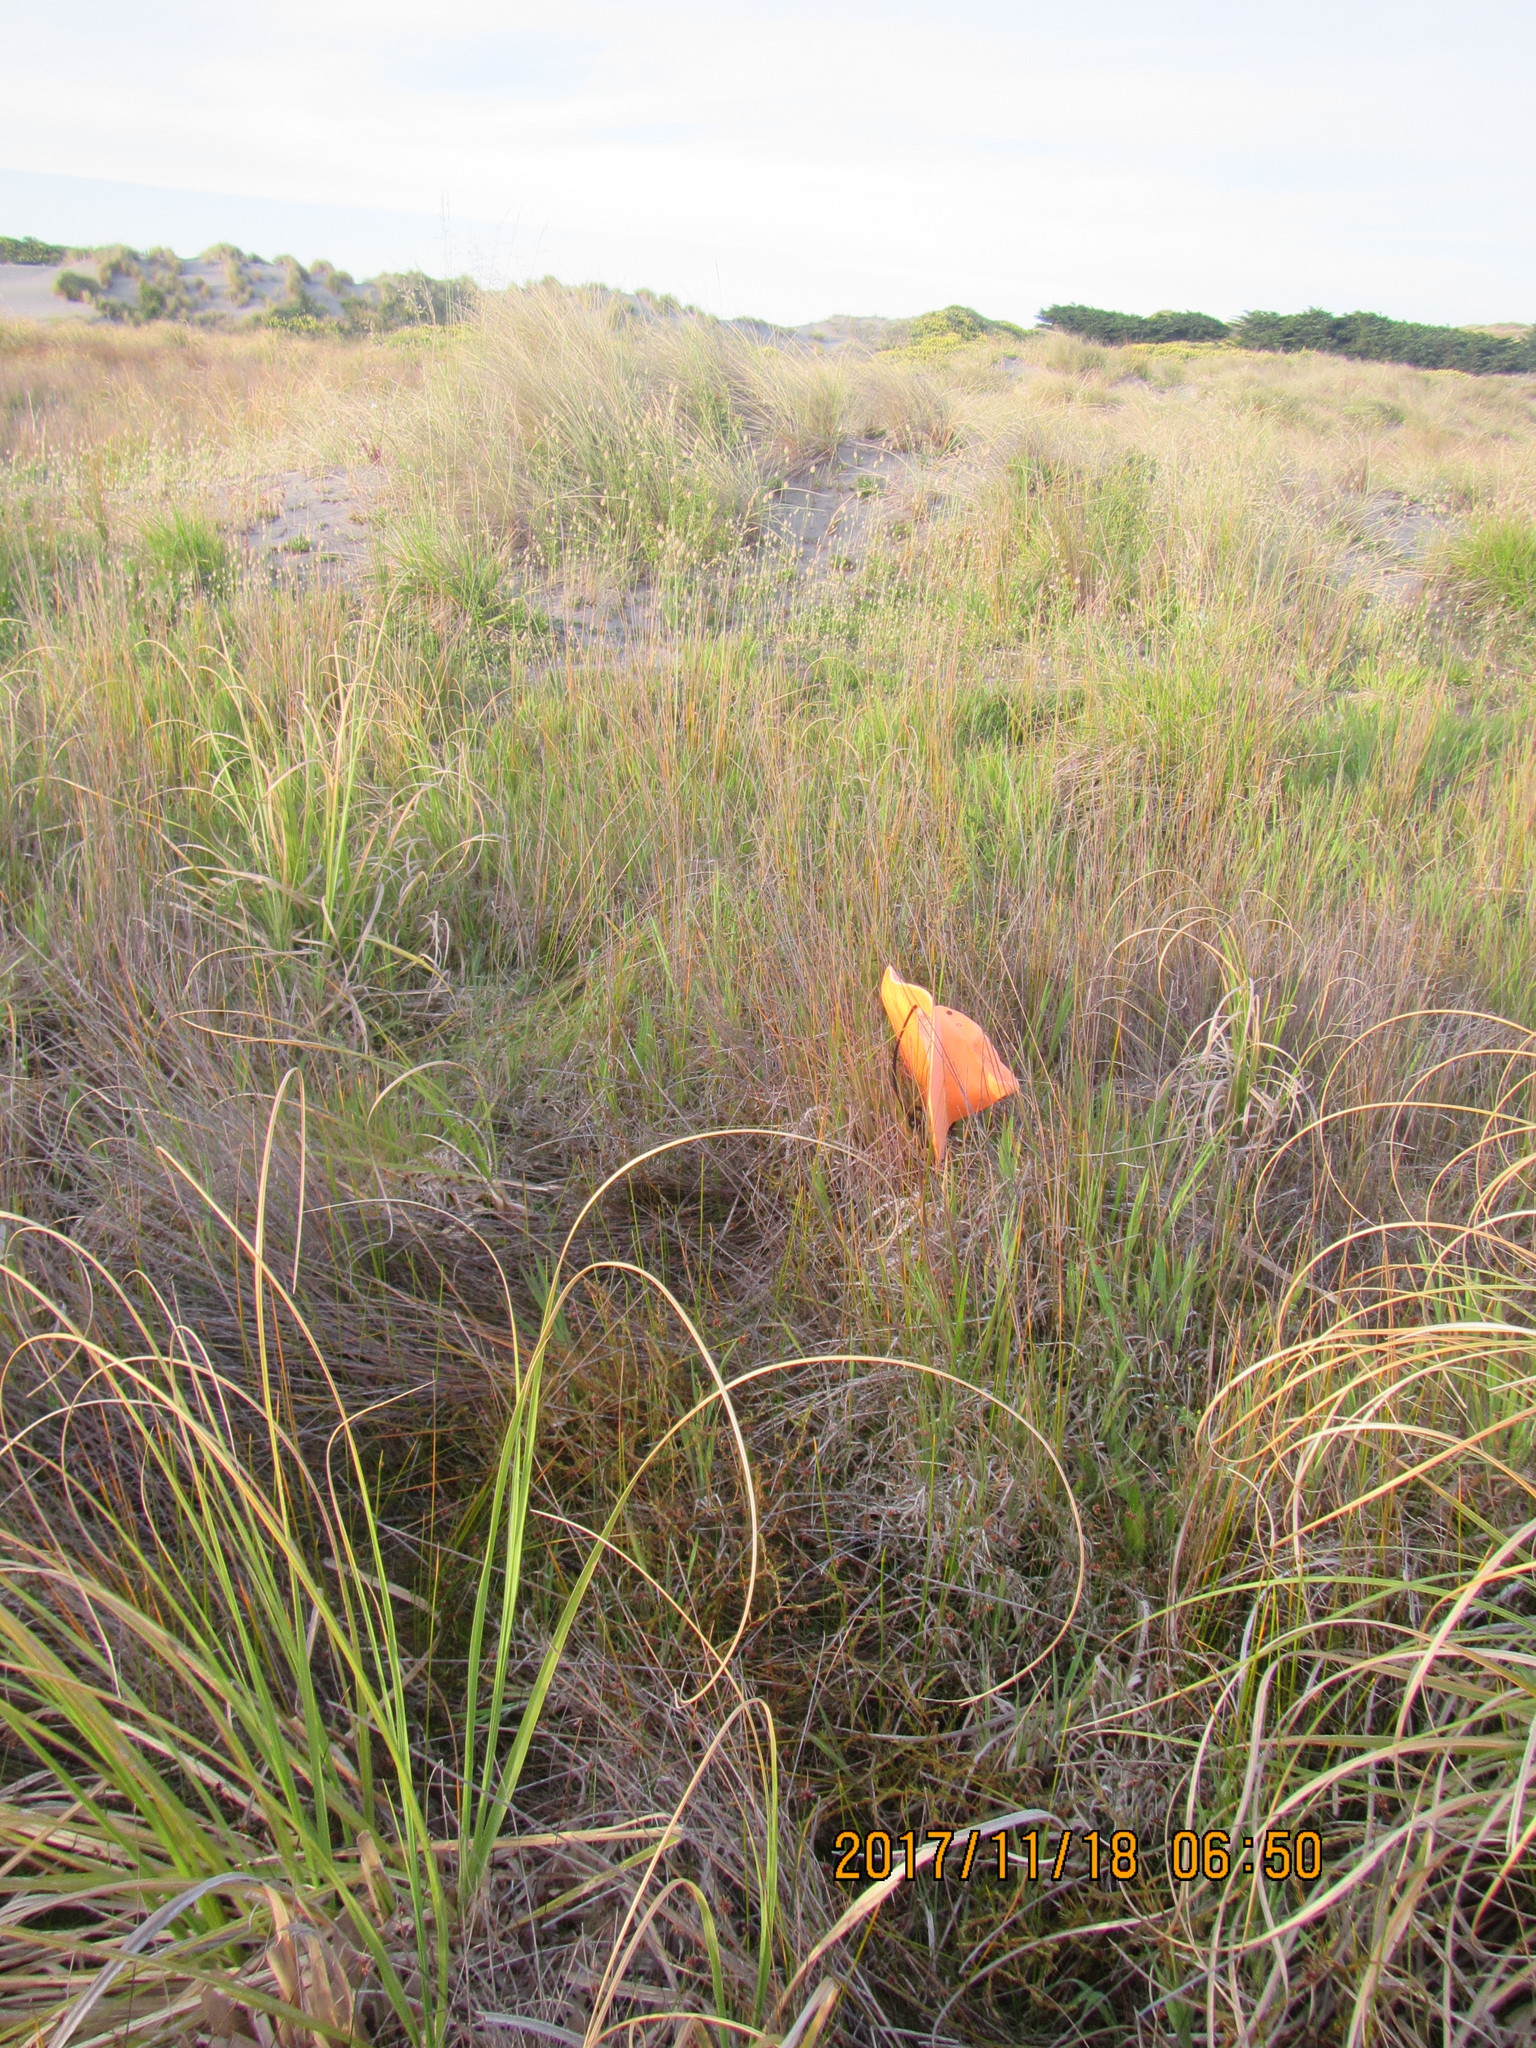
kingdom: Plantae
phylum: Tracheophyta
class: Magnoliopsida
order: Gentianales
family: Rubiaceae
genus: Coprosma
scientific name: Coprosma acerosa
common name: Sand coprosma
